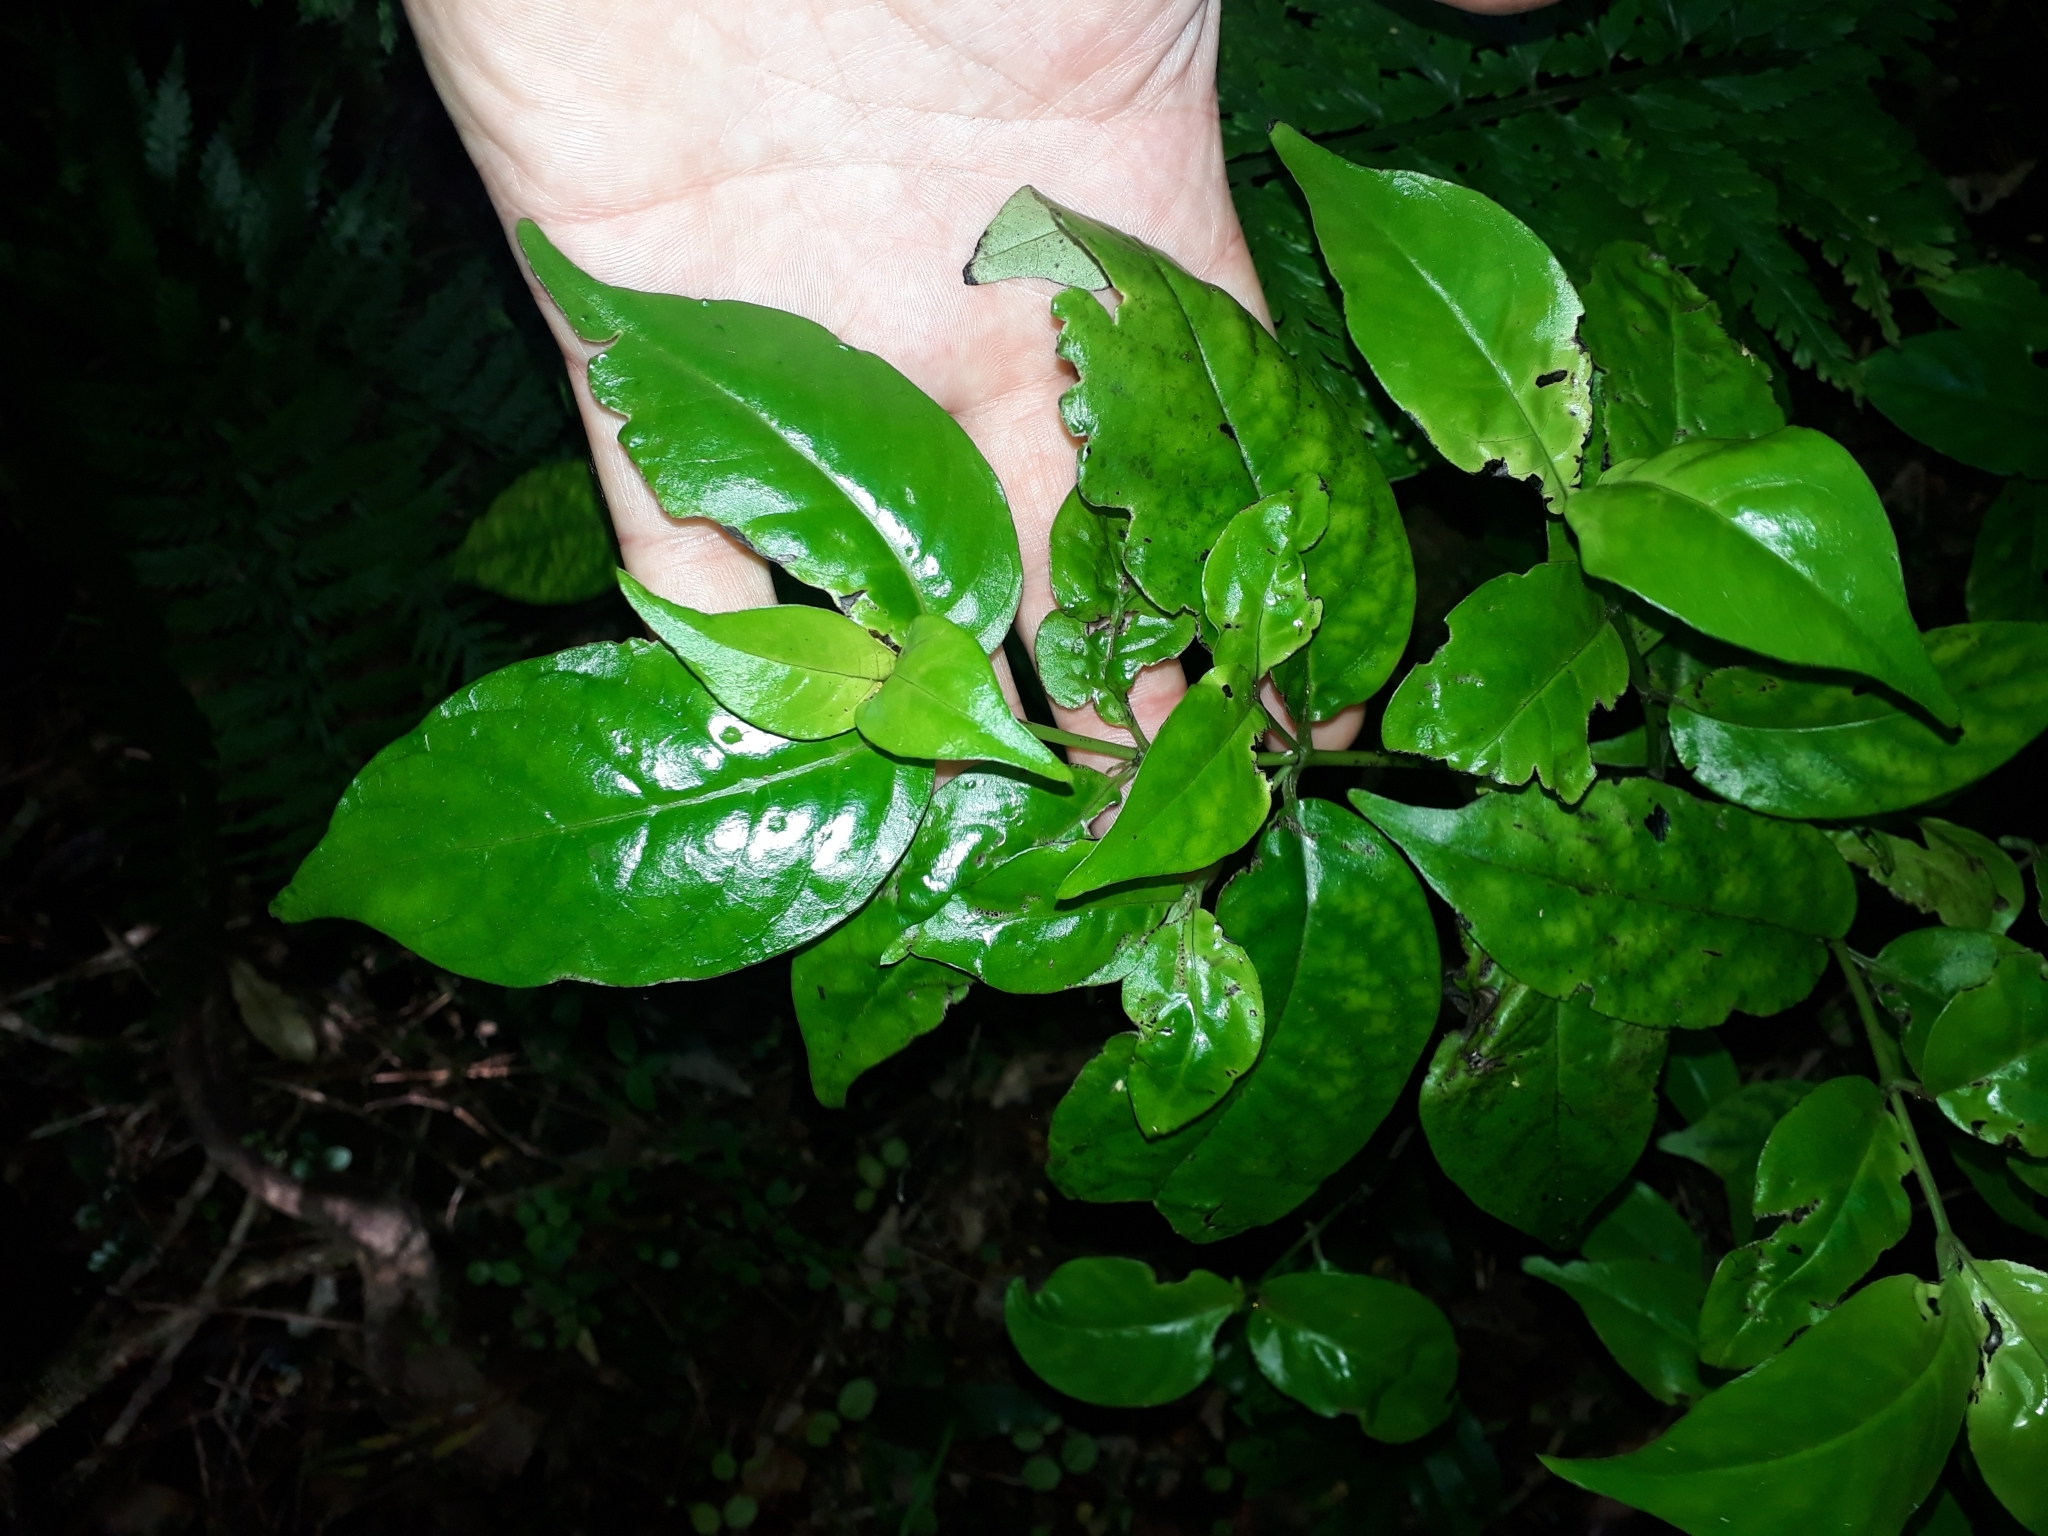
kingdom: Plantae
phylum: Tracheophyta
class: Magnoliopsida
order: Gentianales
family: Loganiaceae
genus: Geniostoma
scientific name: Geniostoma ligustrifolium
